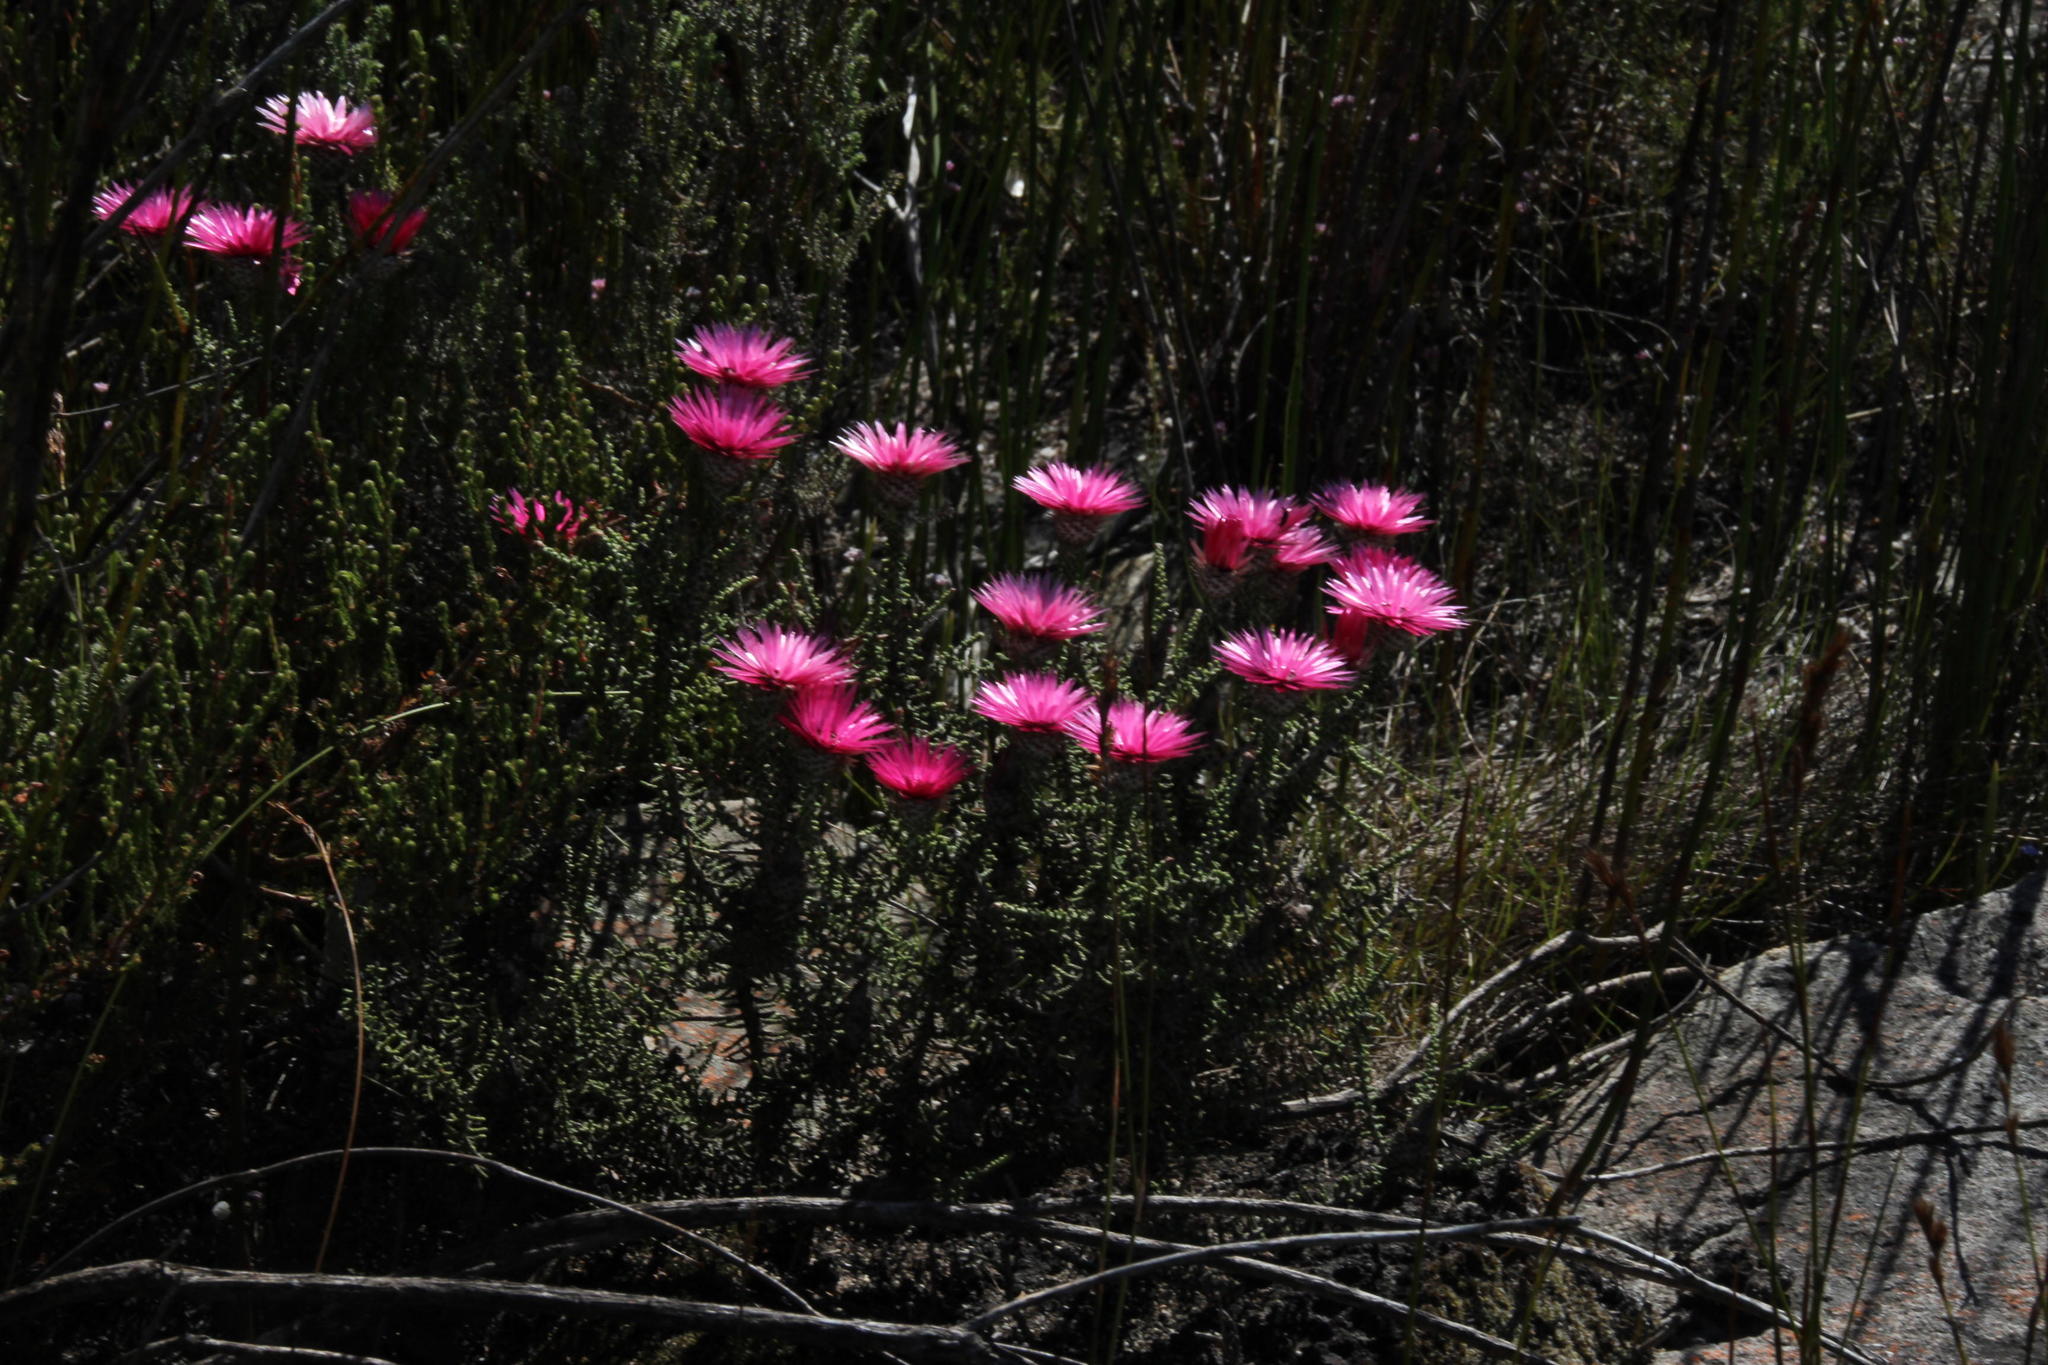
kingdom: Plantae
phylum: Tracheophyta
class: Magnoliopsida
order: Asterales
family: Asteraceae
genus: Phaenocoma
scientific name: Phaenocoma prolifera
